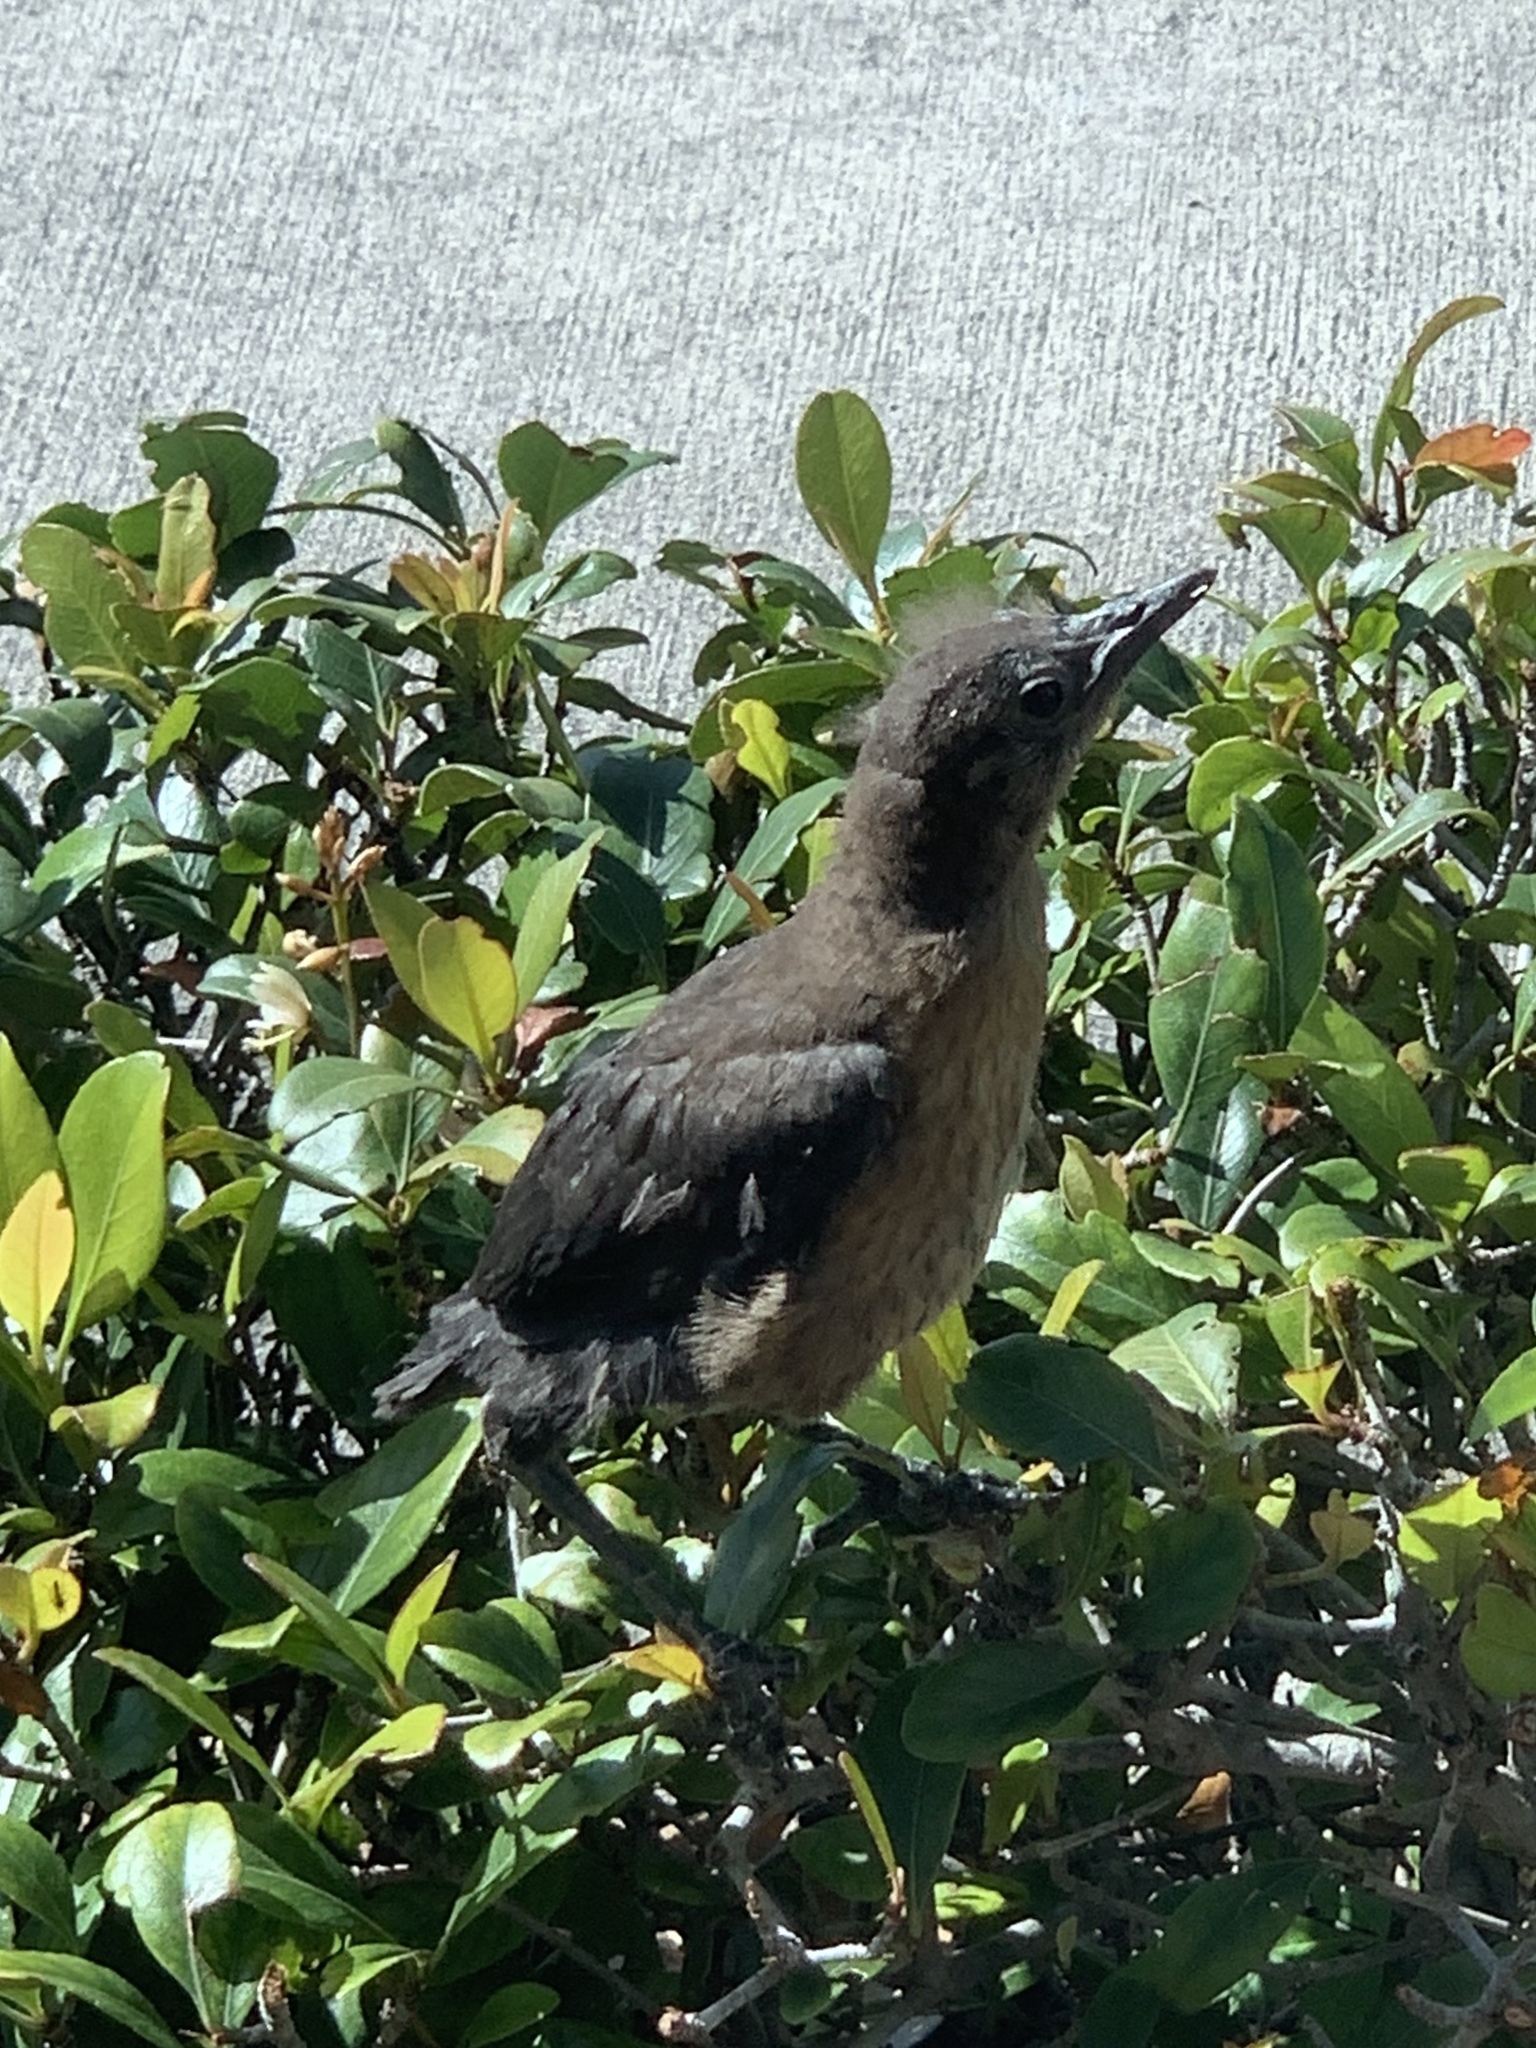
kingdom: Animalia
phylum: Chordata
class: Aves
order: Passeriformes
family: Icteridae
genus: Quiscalus
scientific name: Quiscalus major
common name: Boat-tailed grackle
